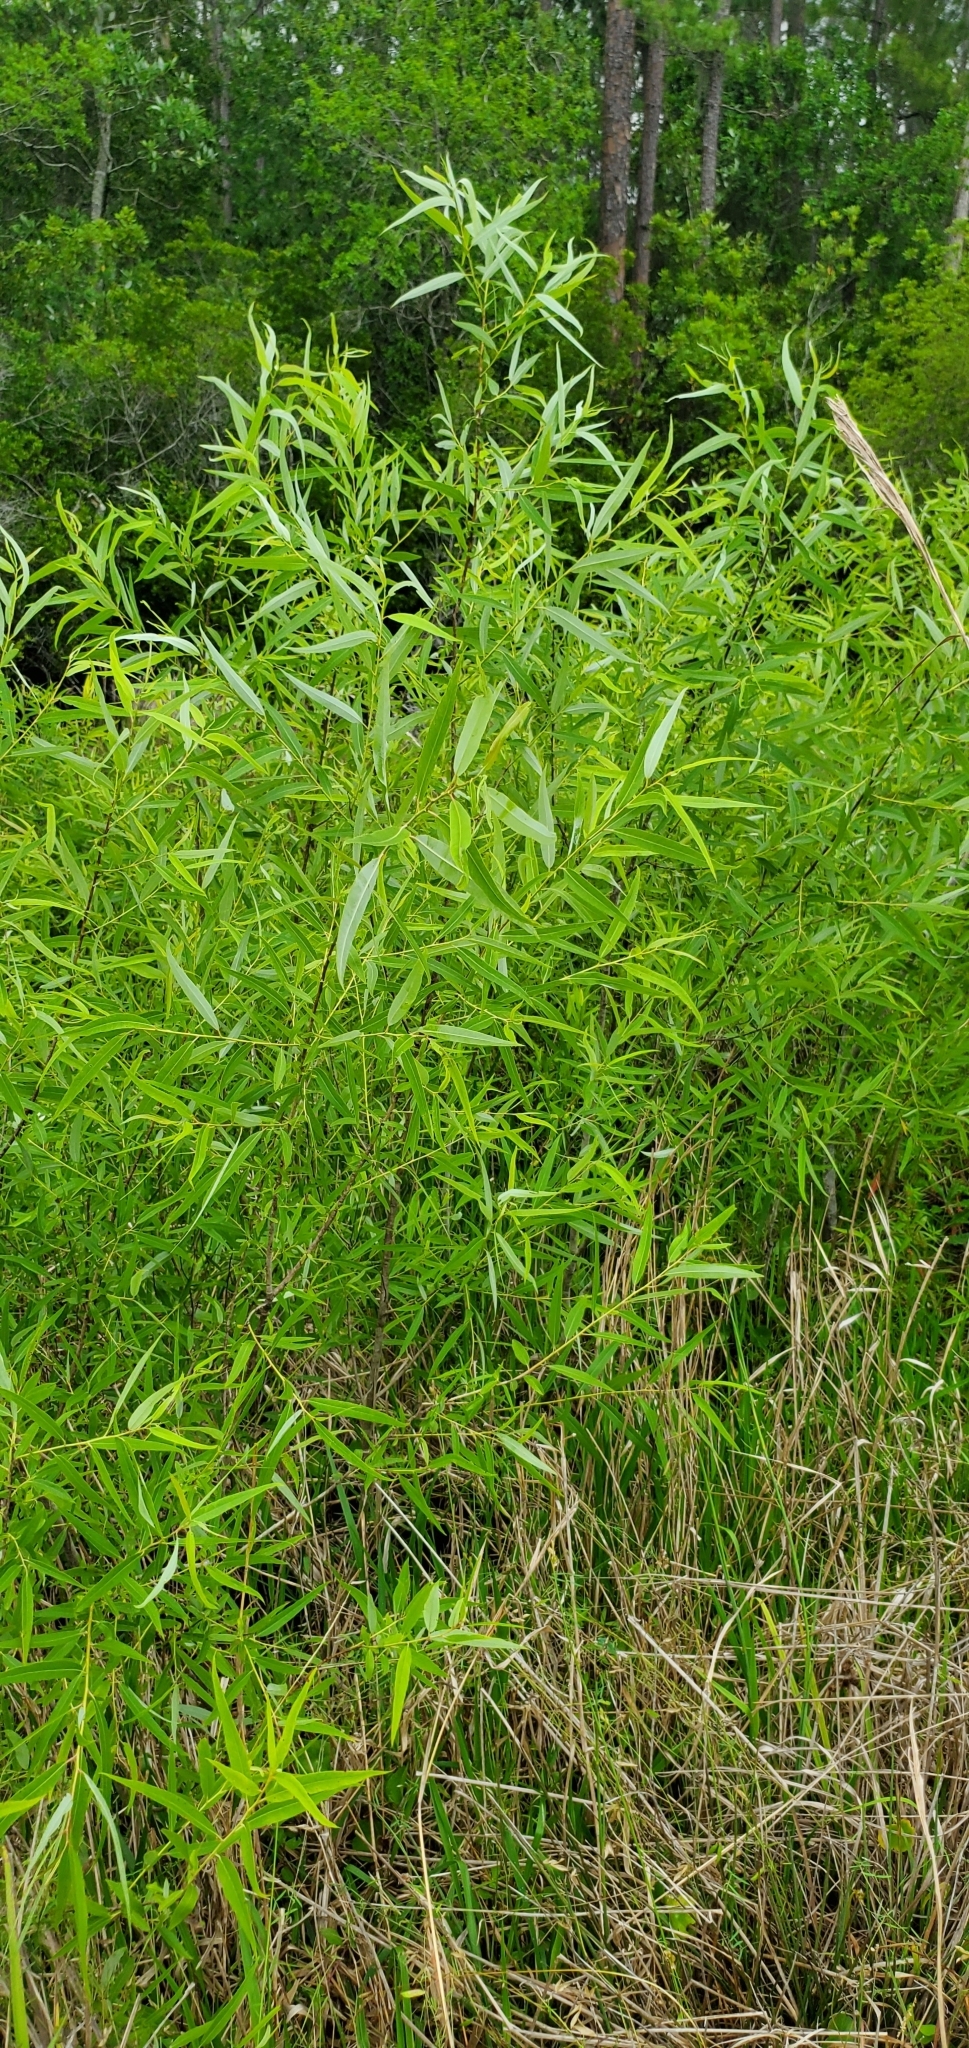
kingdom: Plantae
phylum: Tracheophyta
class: Magnoliopsida
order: Malpighiales
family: Salicaceae
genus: Salix
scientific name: Salix caroliniana
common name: Carolina willow
